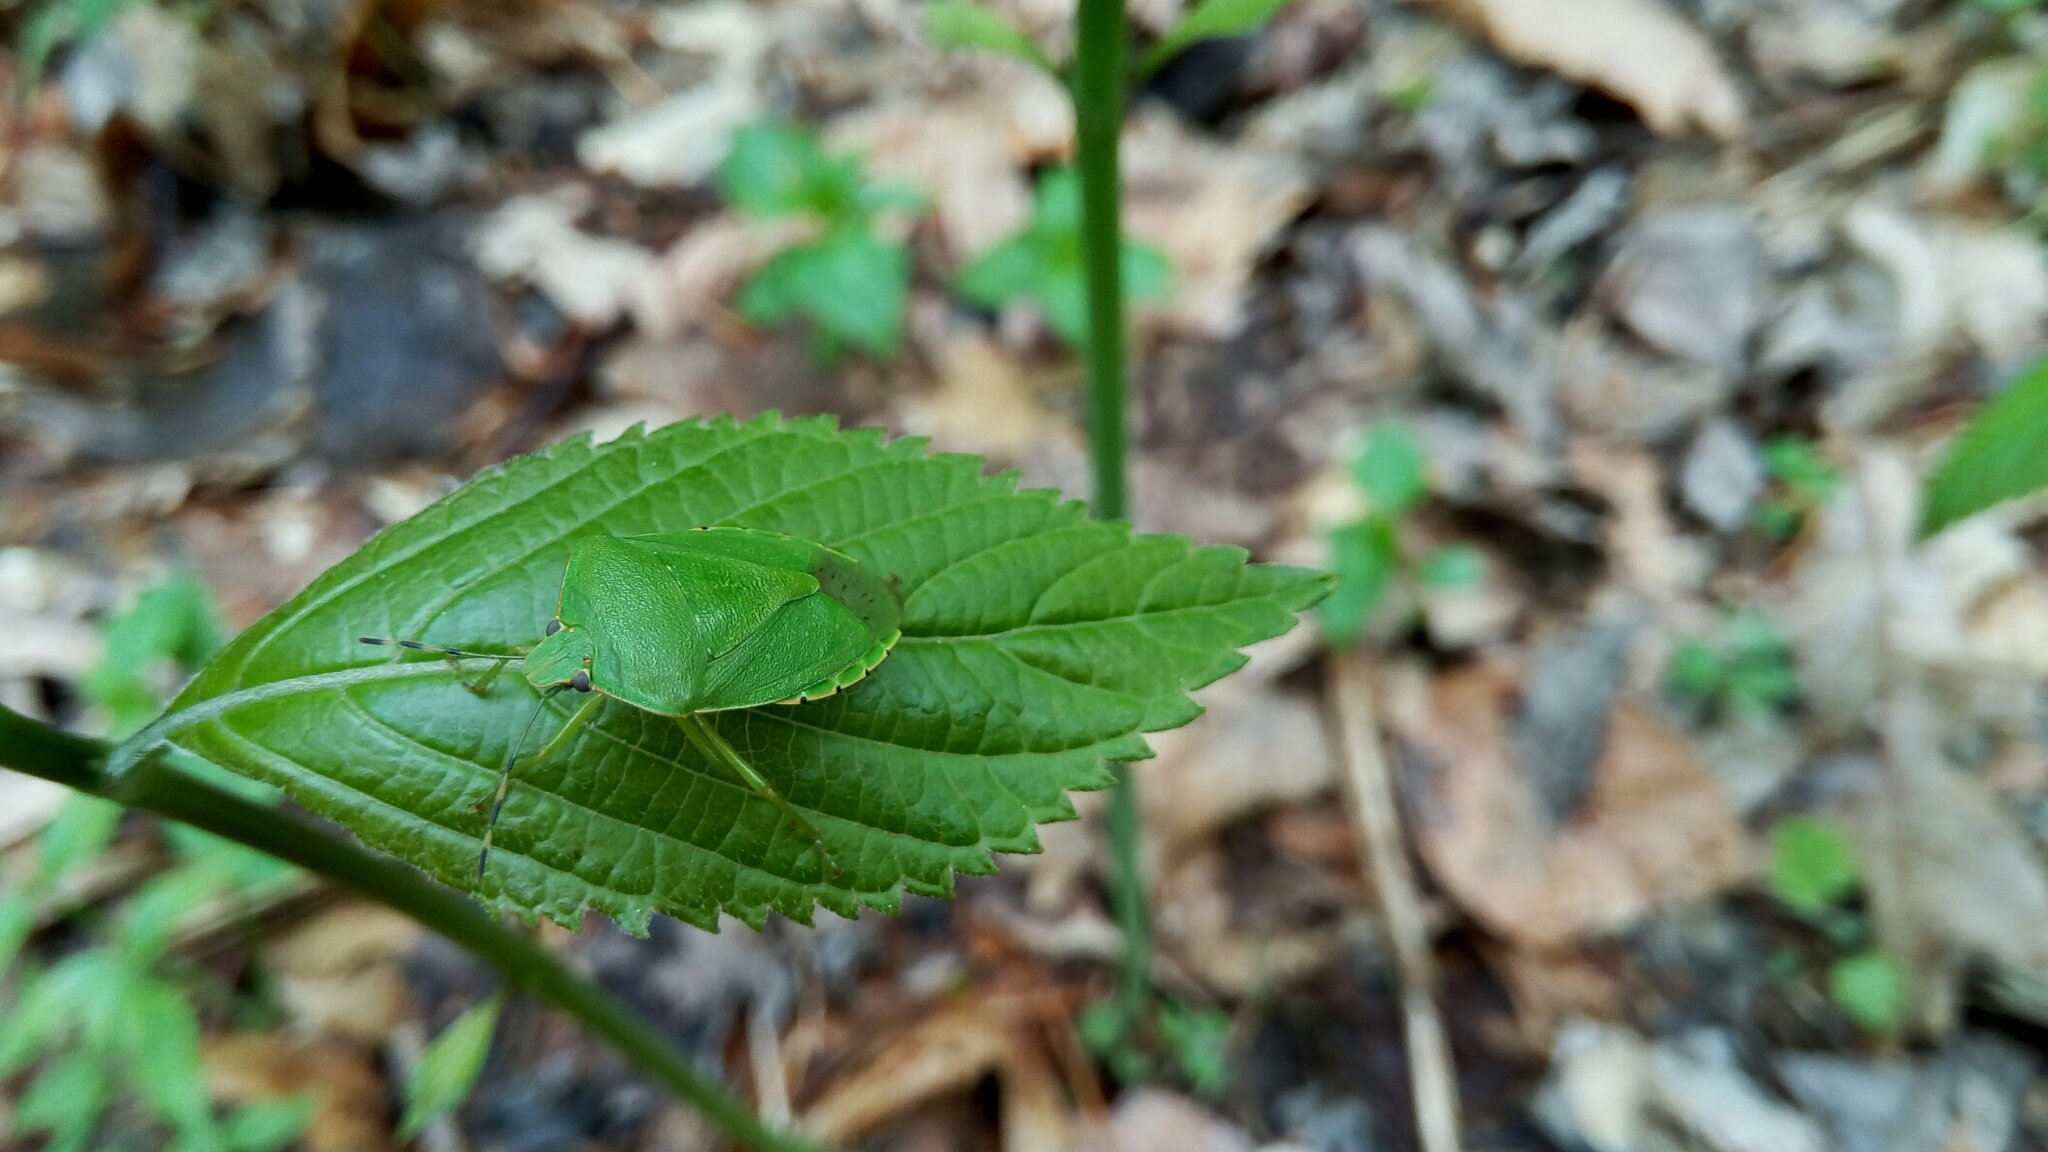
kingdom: Animalia
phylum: Arthropoda
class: Insecta
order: Hemiptera
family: Pentatomidae
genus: Chinavia
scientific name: Chinavia hilaris
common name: Green stink bug
